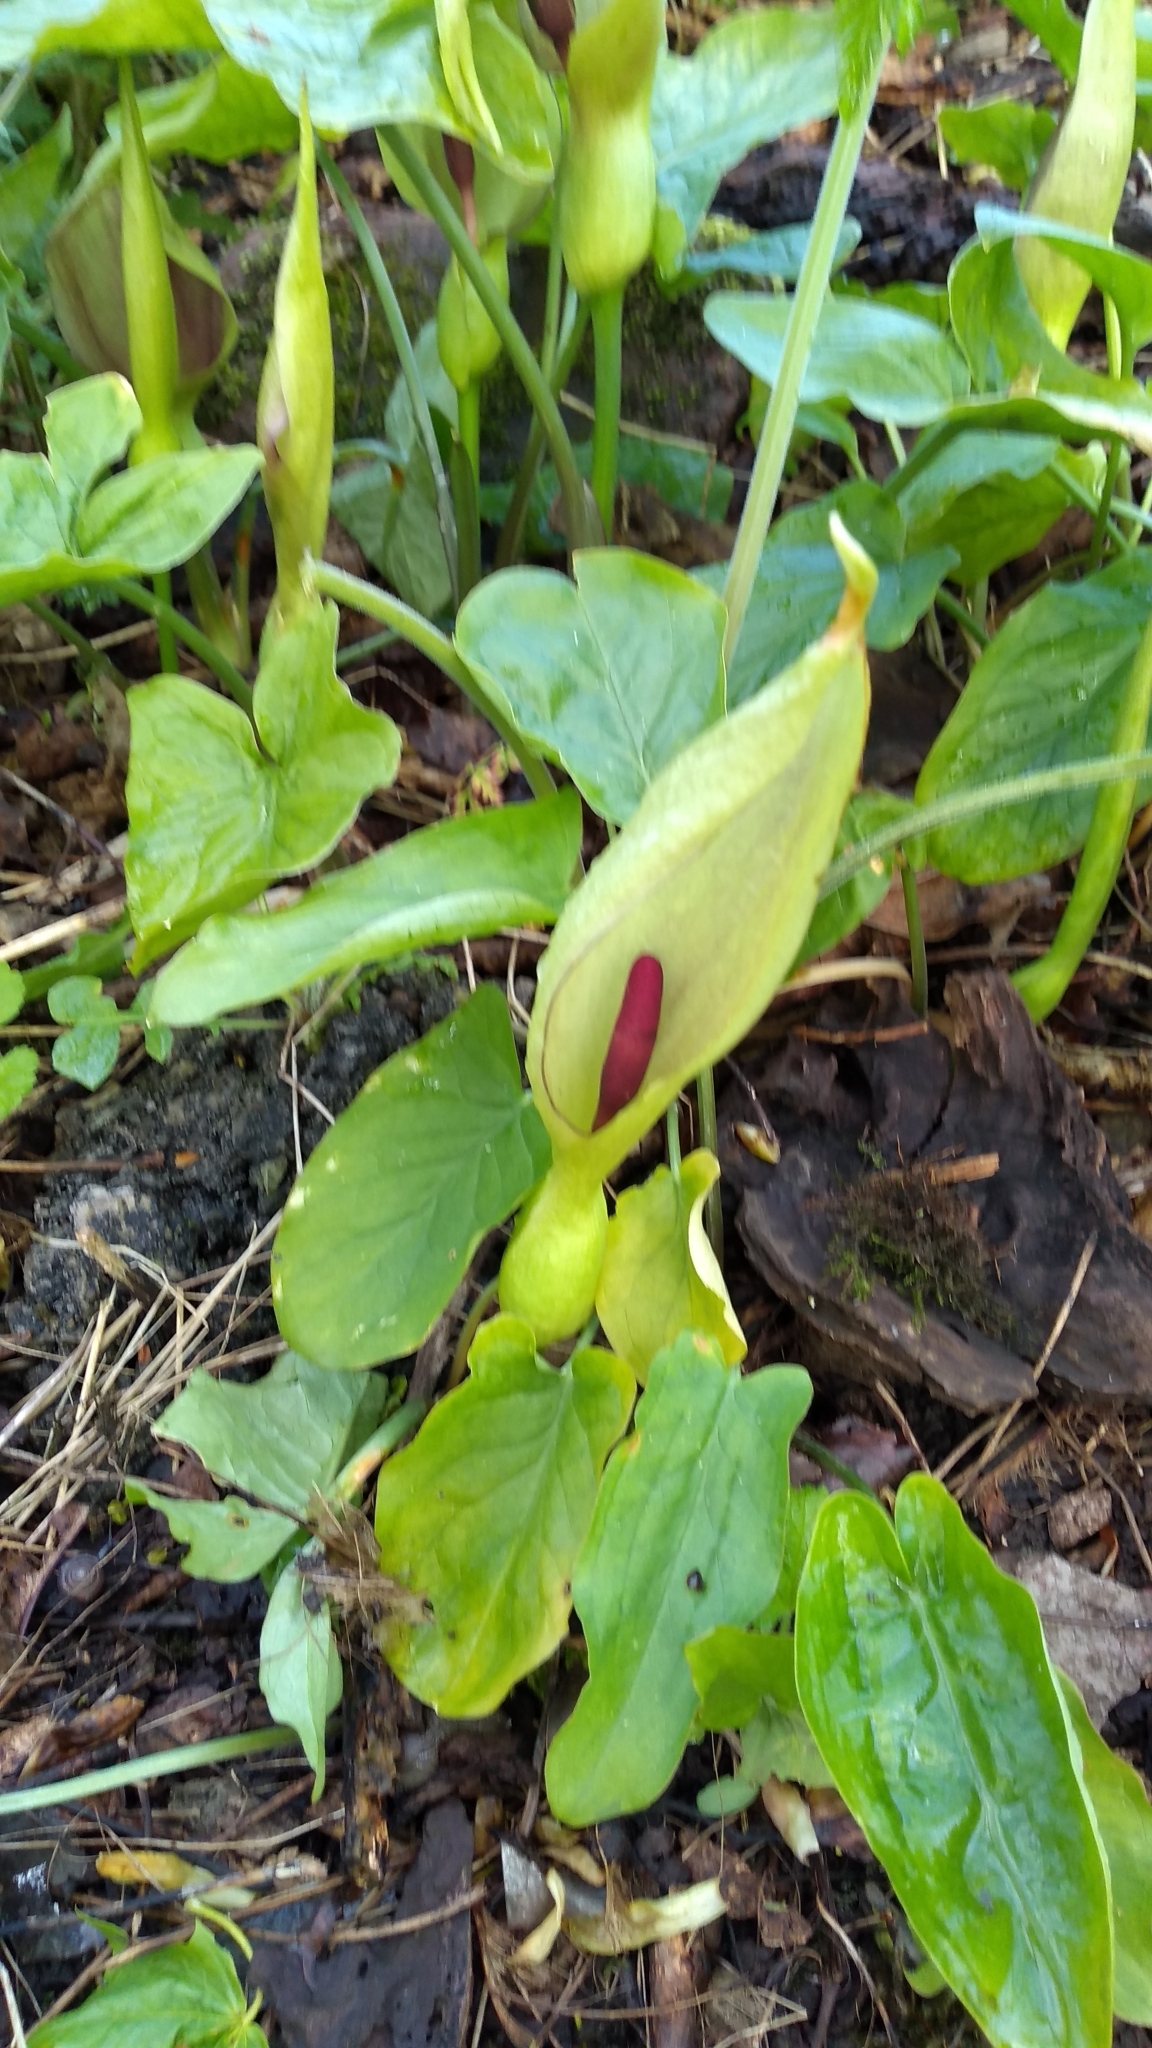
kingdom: Plantae
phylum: Tracheophyta
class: Liliopsida
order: Alismatales
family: Araceae
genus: Arum
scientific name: Arum maculatum
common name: Lords-and-ladies
